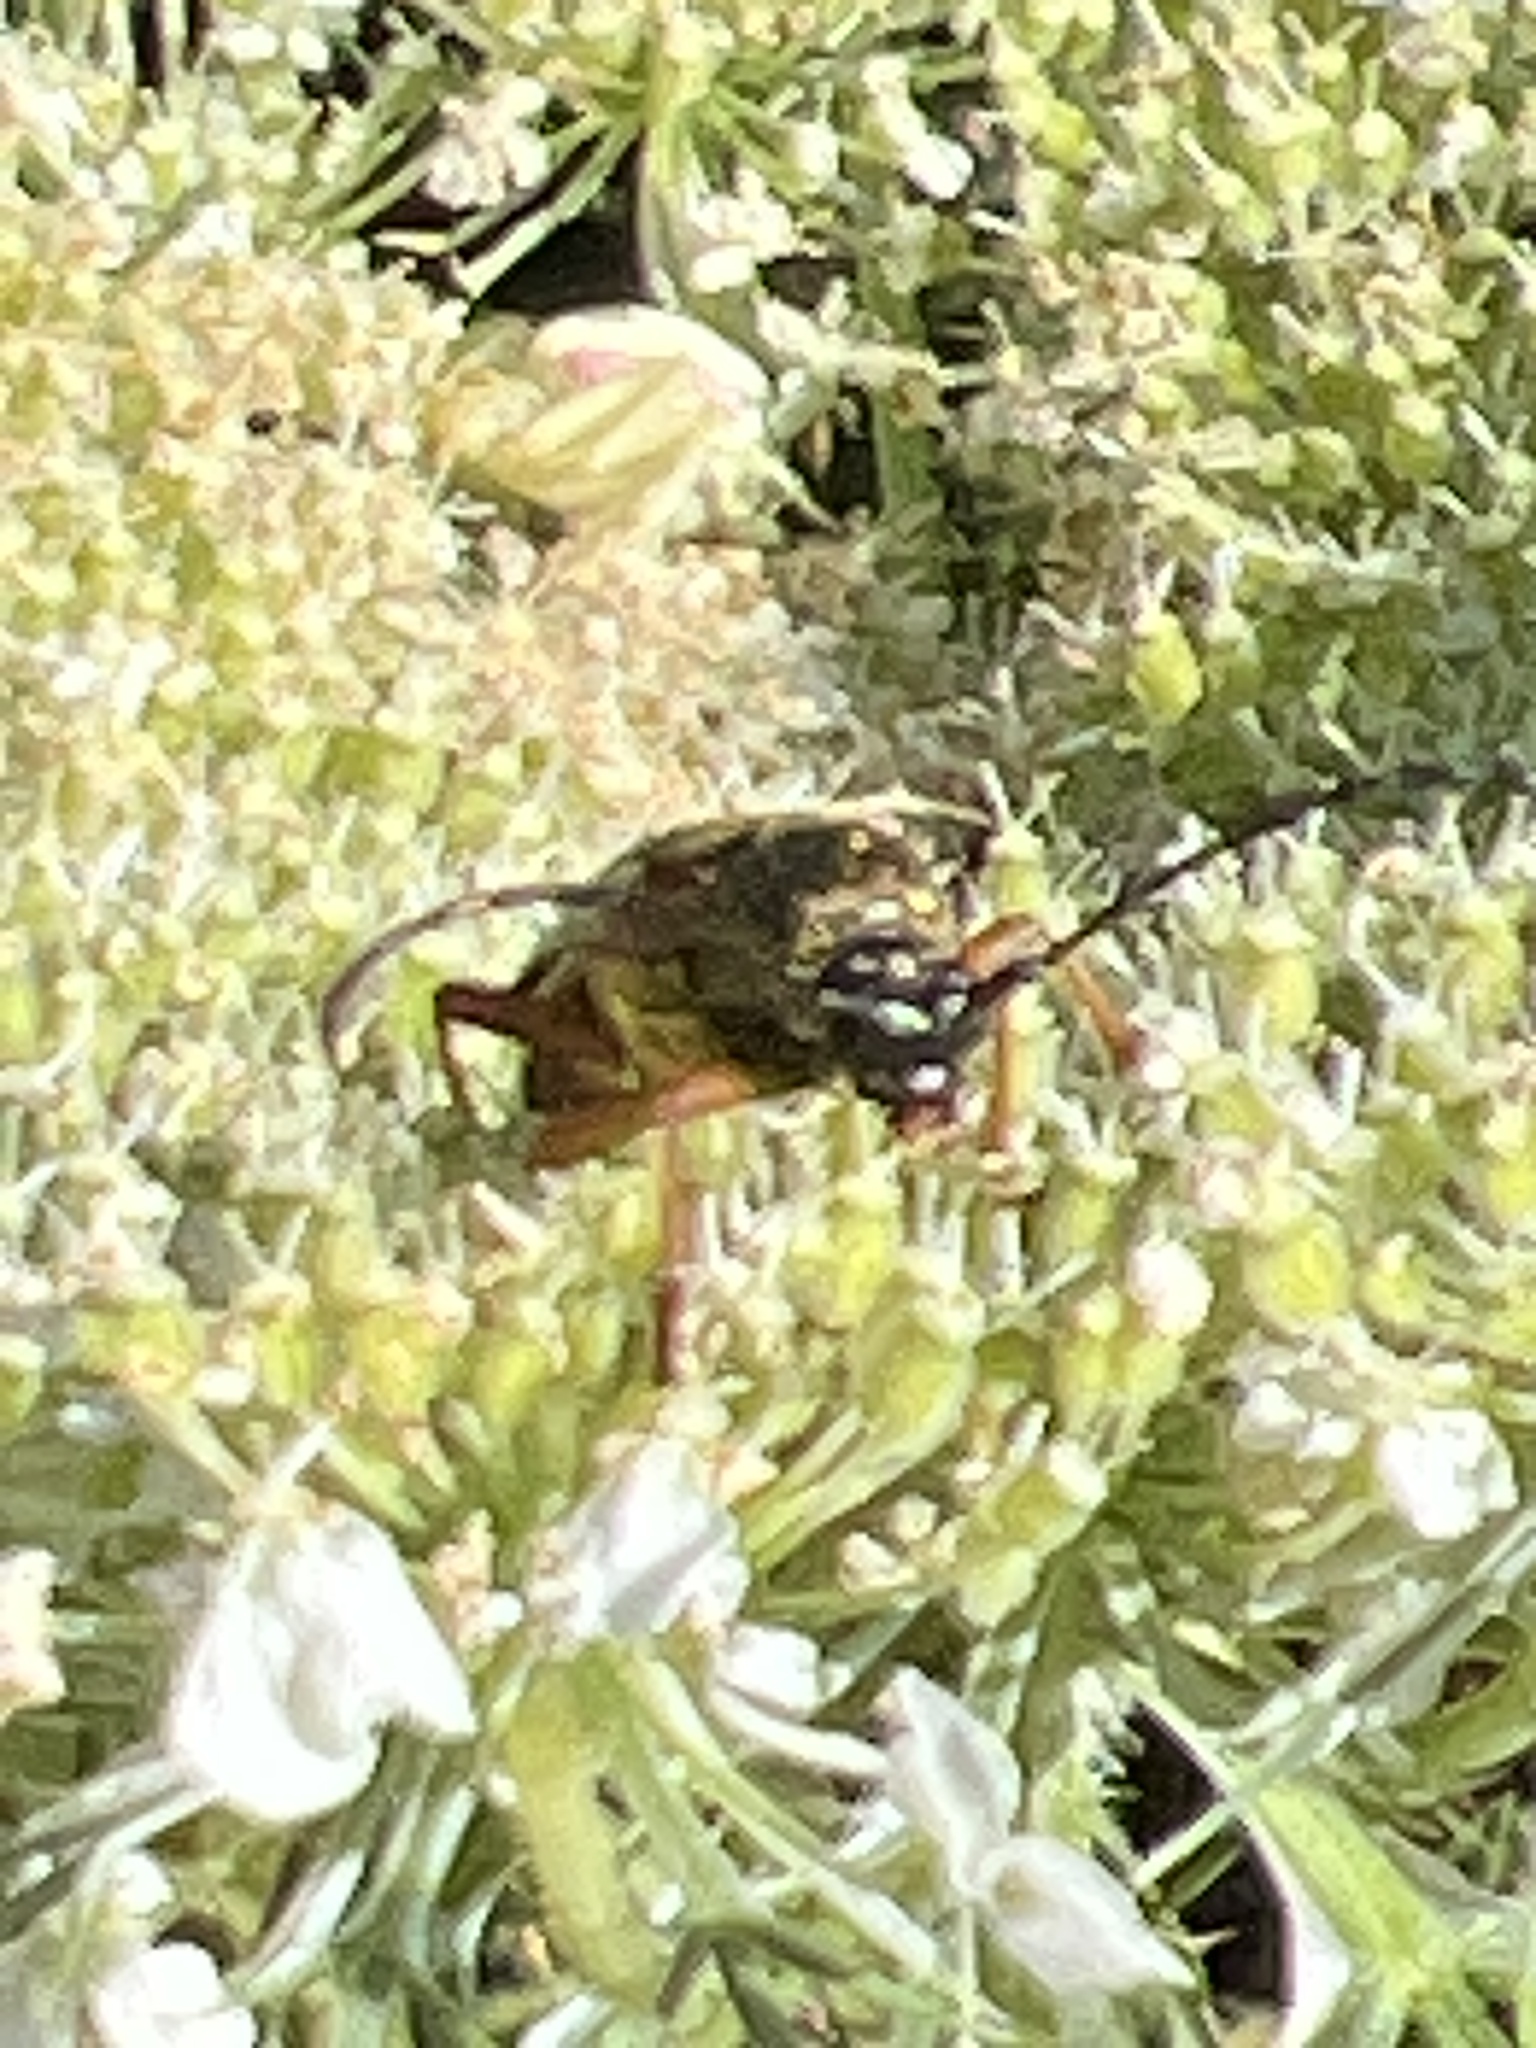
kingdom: Animalia
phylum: Arthropoda
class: Insecta
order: Coleoptera
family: Cerambycidae
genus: Typocerus
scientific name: Typocerus velutinus
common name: Banded longhorn beetle
